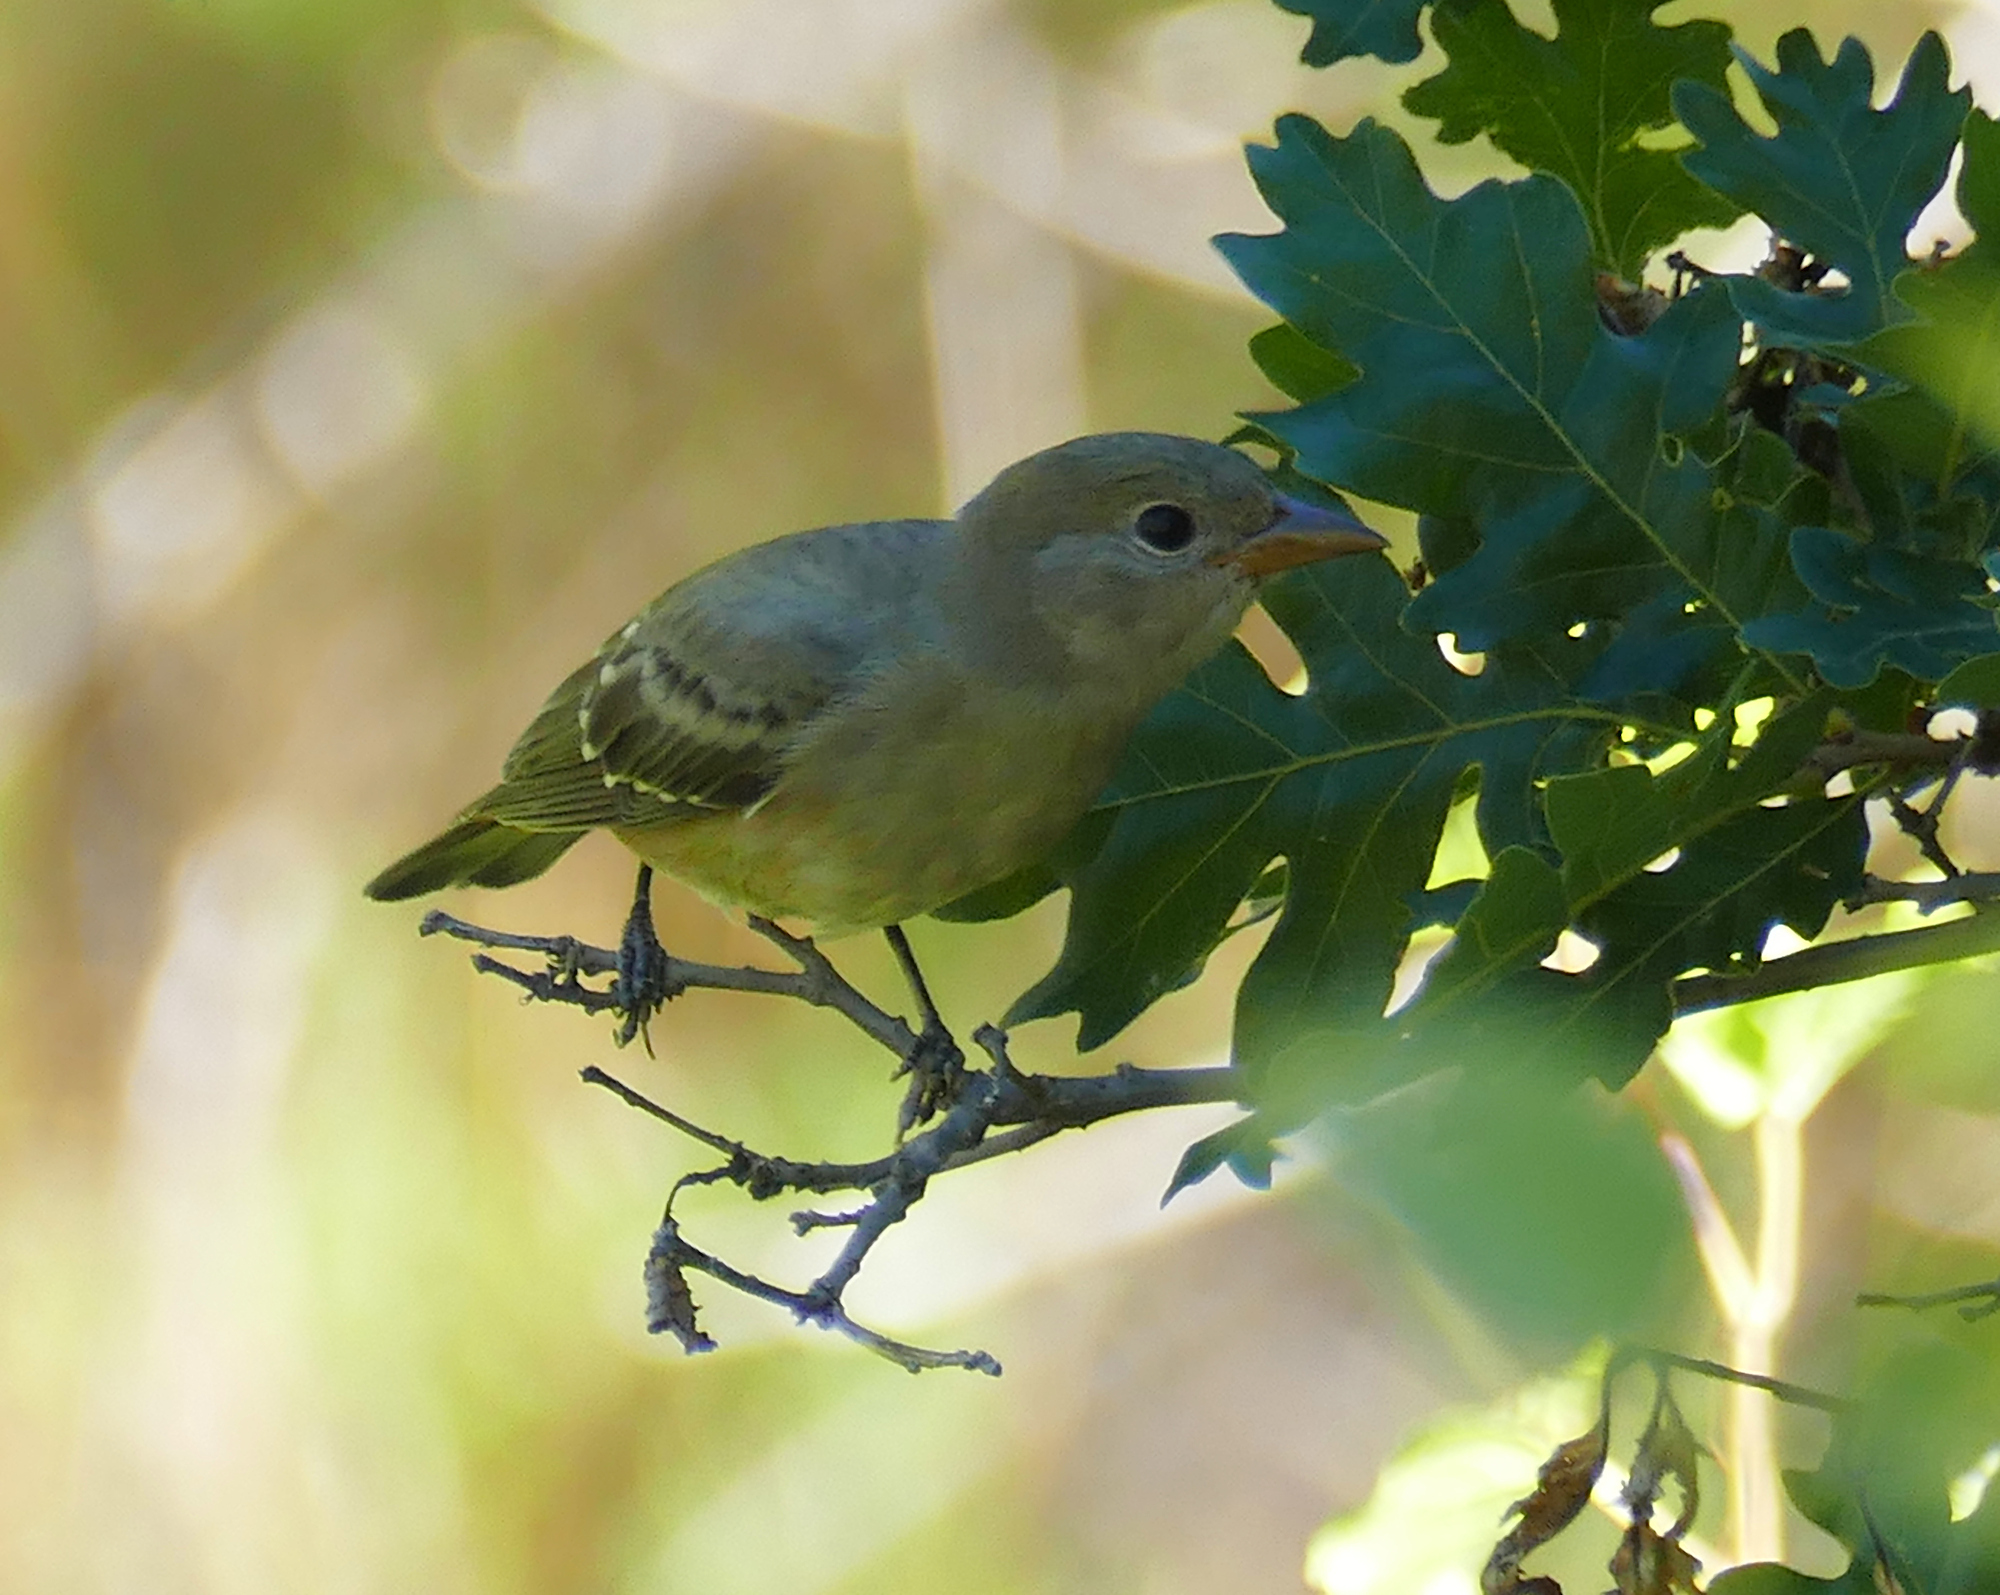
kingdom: Animalia
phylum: Chordata
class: Aves
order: Passeriformes
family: Cardinalidae
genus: Piranga
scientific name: Piranga ludoviciana
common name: Western tanager
